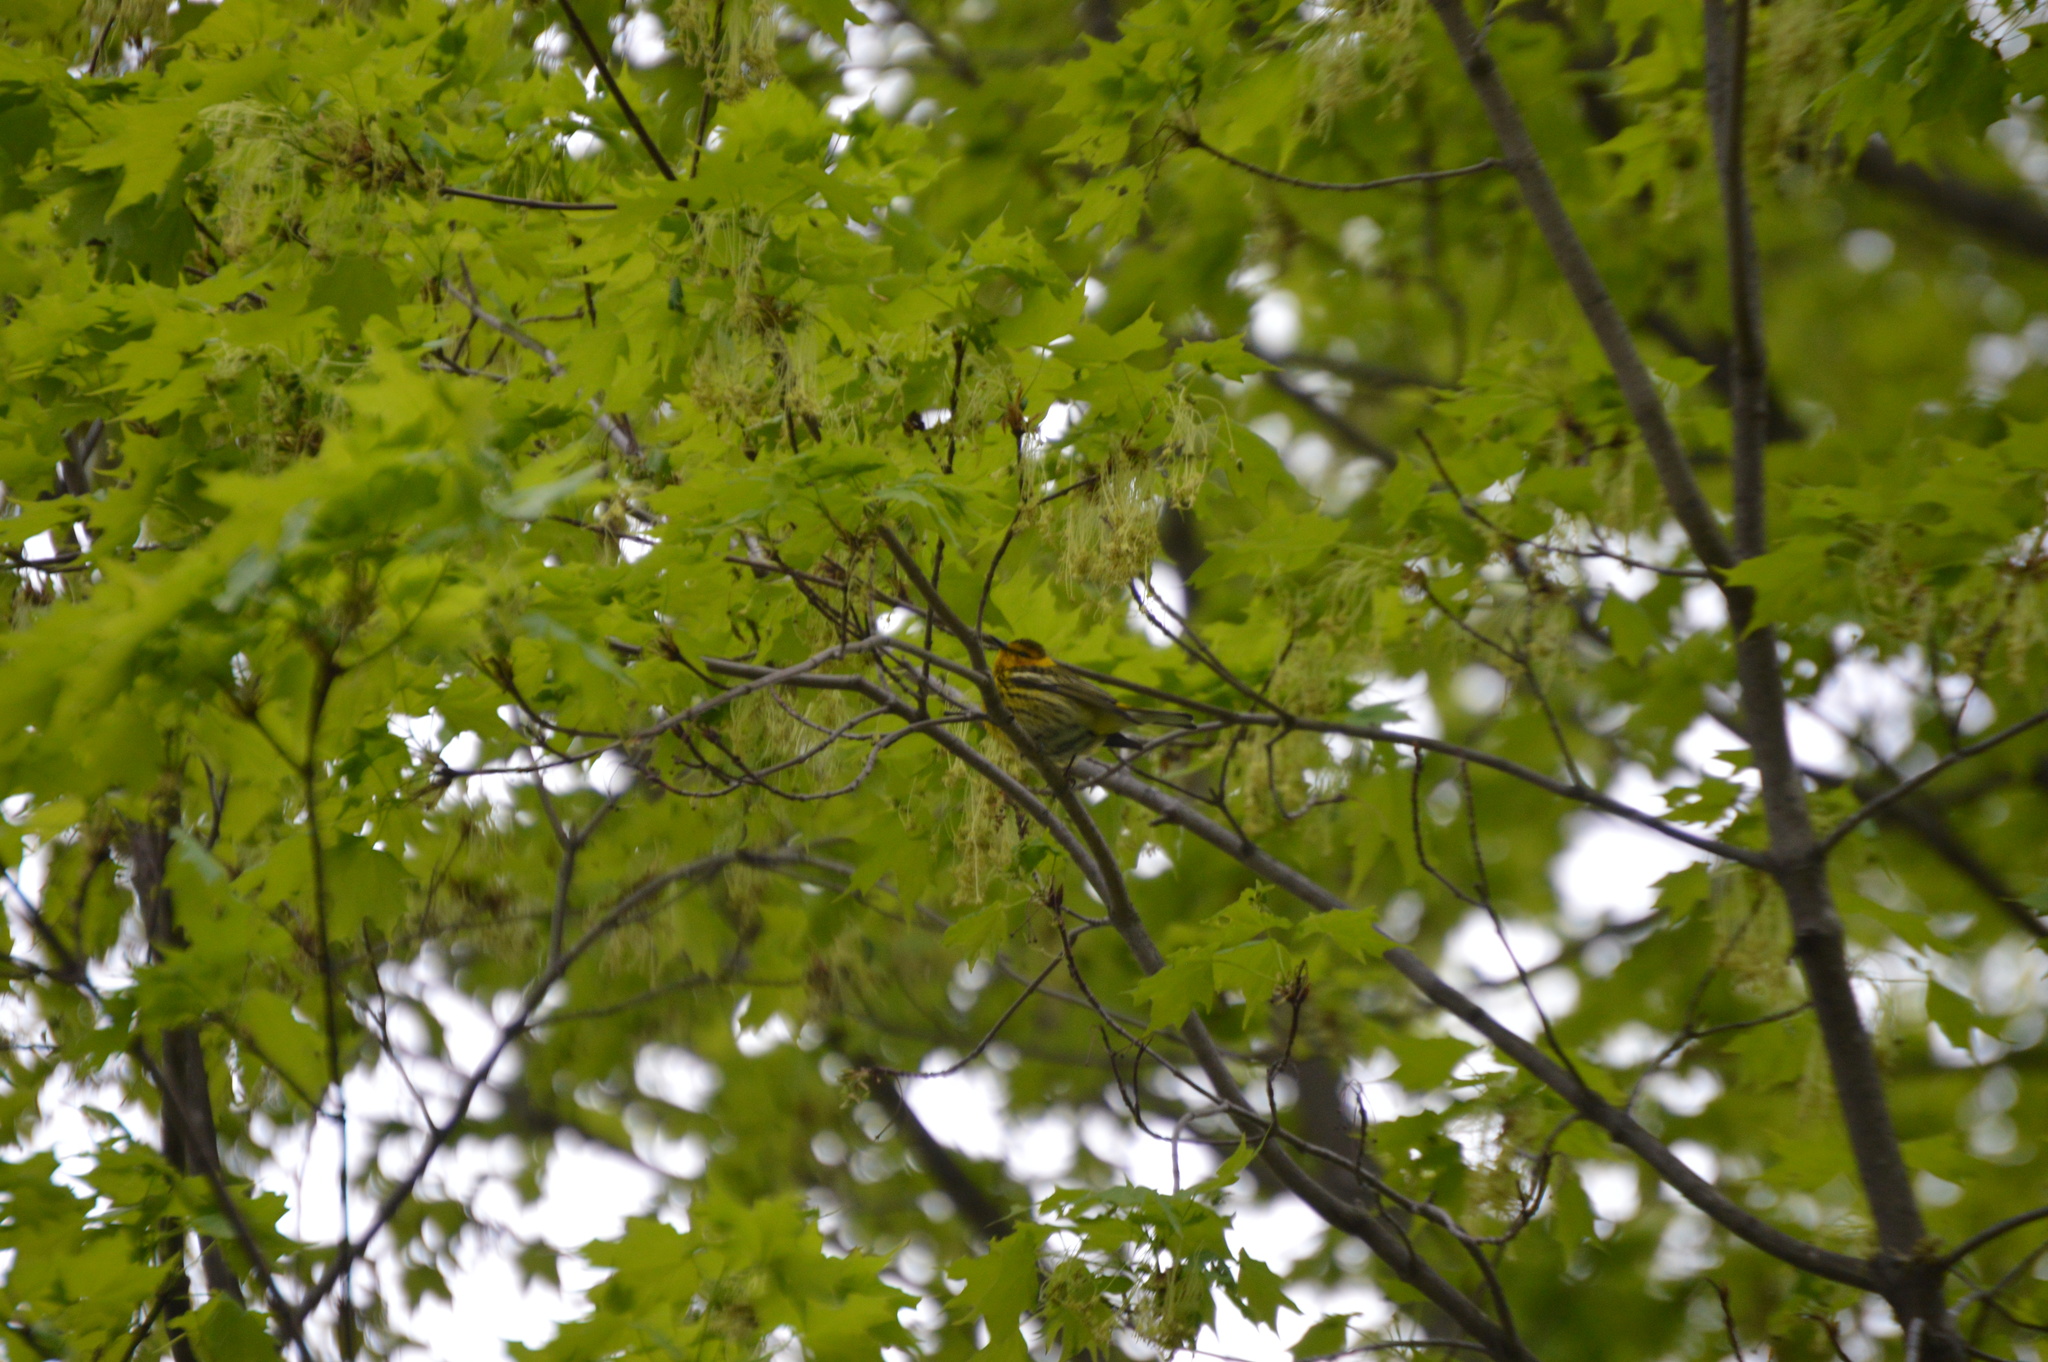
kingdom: Animalia
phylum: Chordata
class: Aves
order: Passeriformes
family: Parulidae
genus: Setophaga
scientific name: Setophaga tigrina
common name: Cape may warbler
